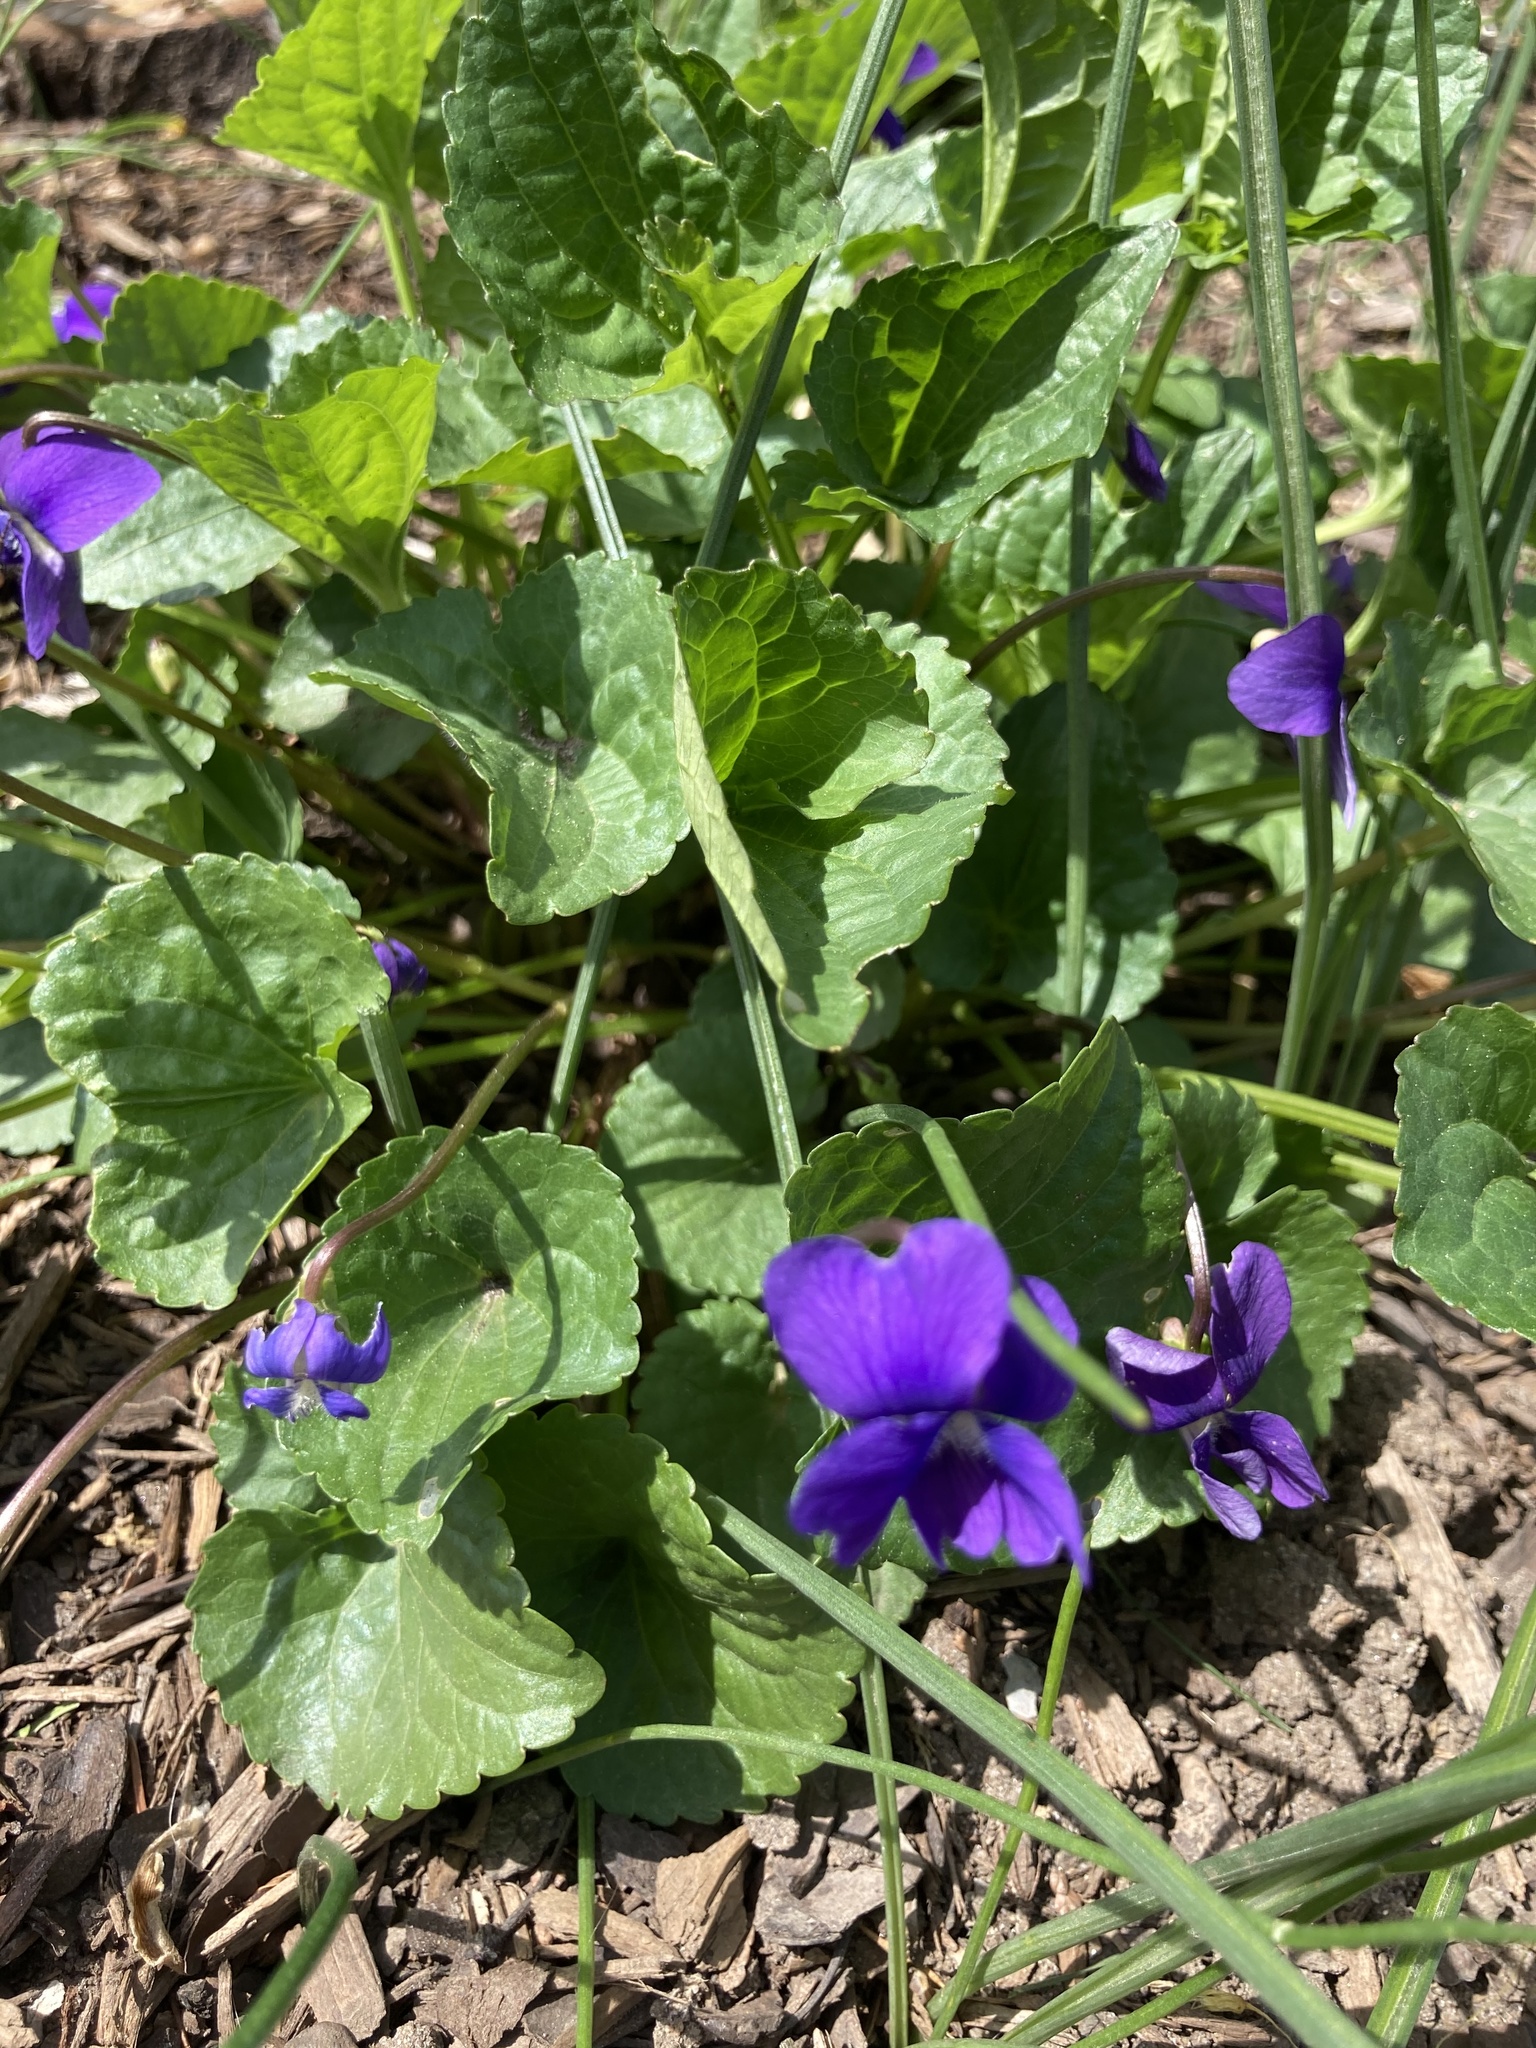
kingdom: Plantae
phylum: Tracheophyta
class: Magnoliopsida
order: Malpighiales
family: Violaceae
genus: Viola
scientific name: Viola sororia
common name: Dooryard violet
